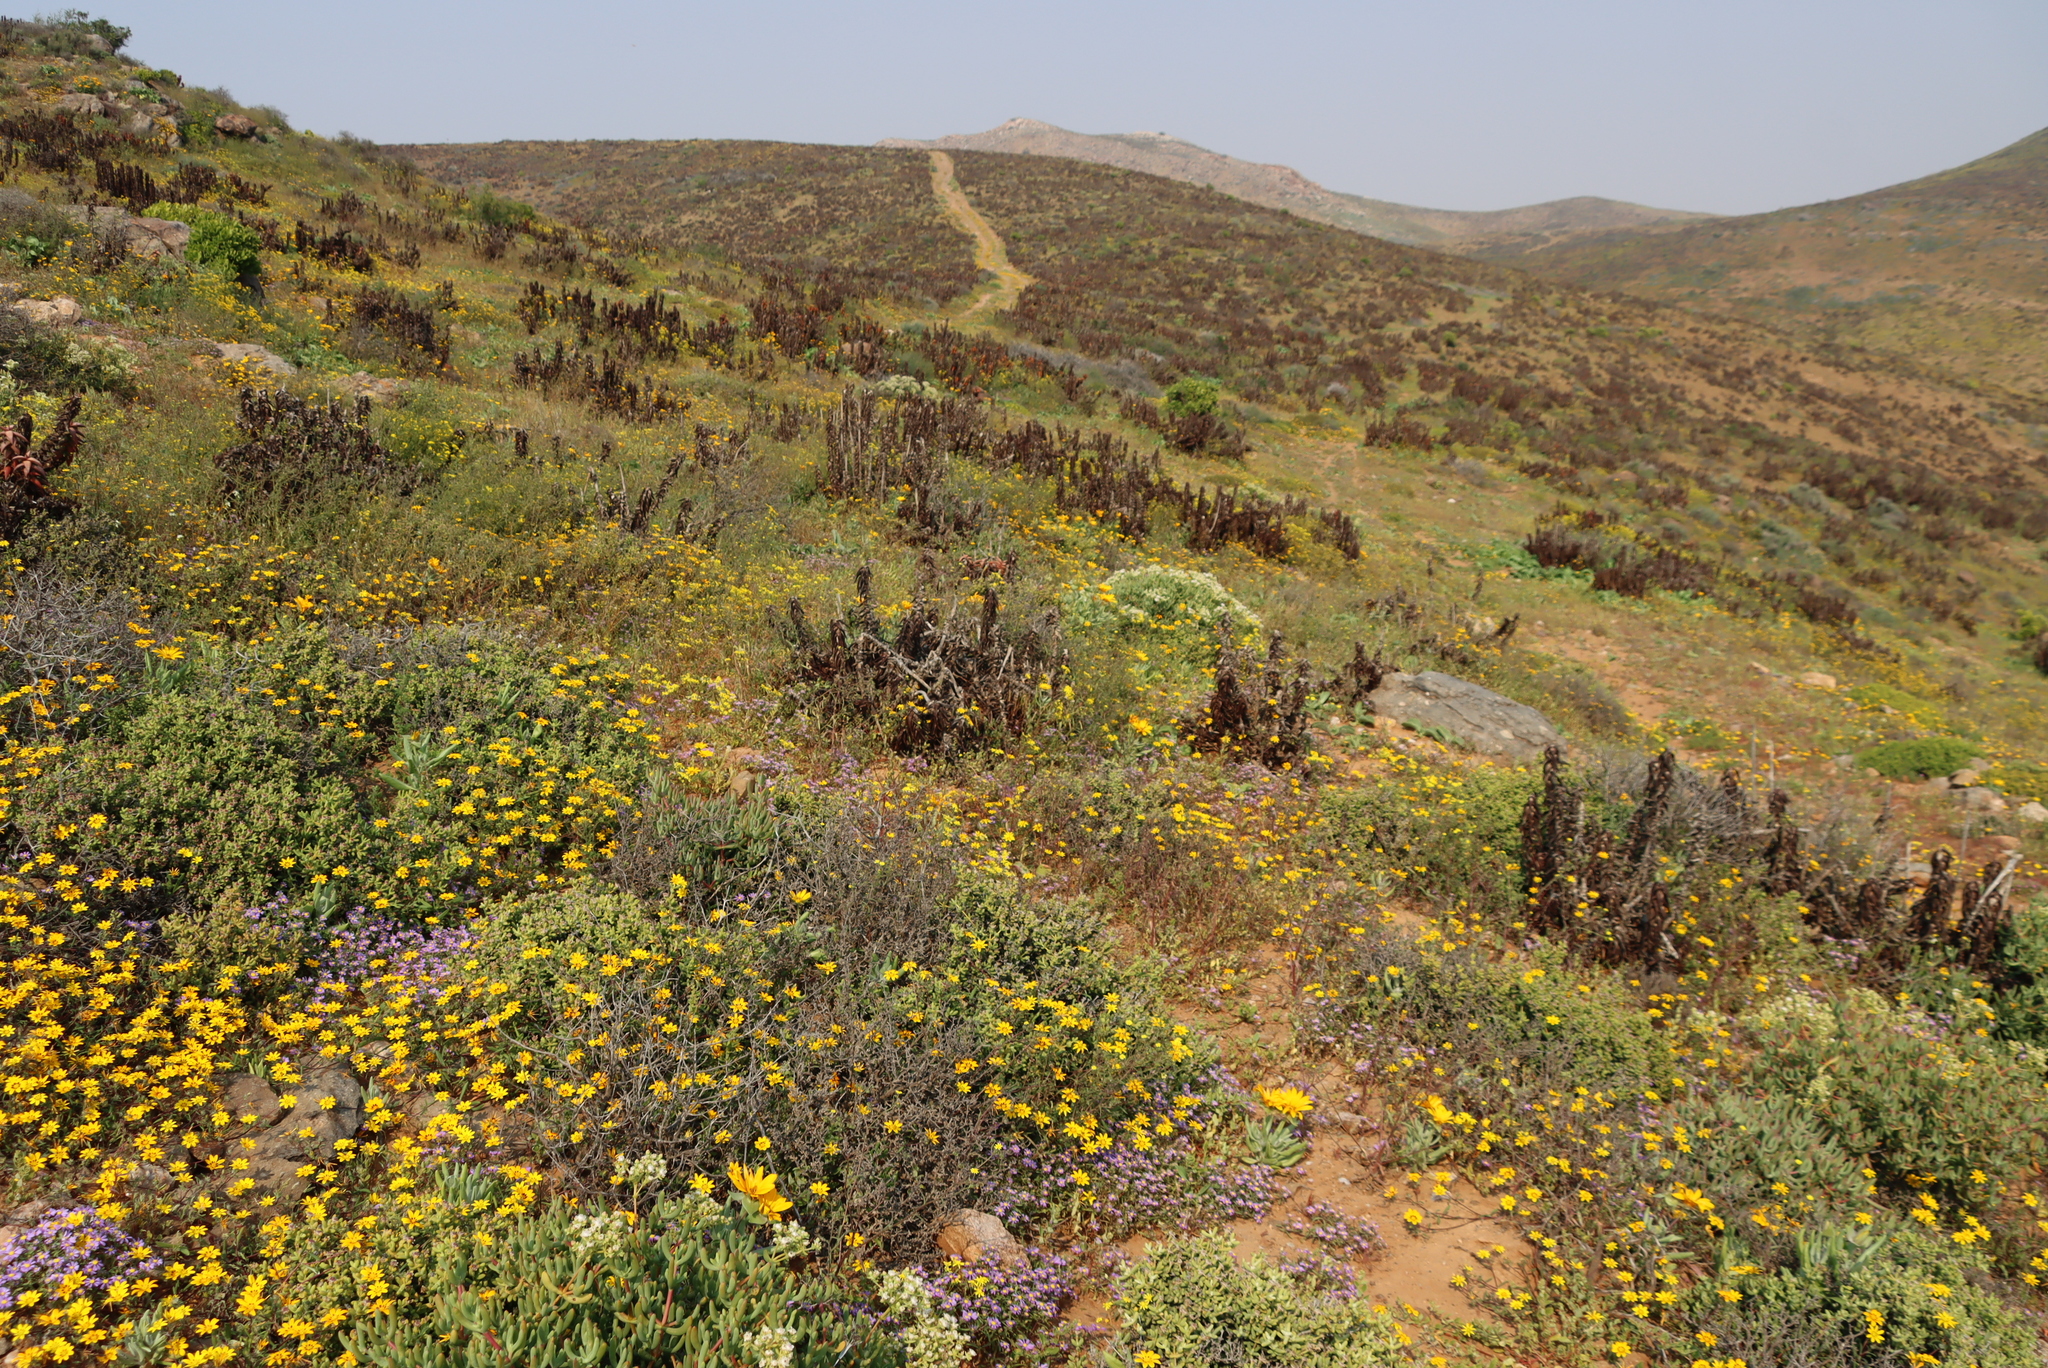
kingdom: Plantae
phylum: Tracheophyta
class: Liliopsida
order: Asparagales
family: Asphodelaceae
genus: Aloe
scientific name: Aloe pearsonii
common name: Pearson's aloe
